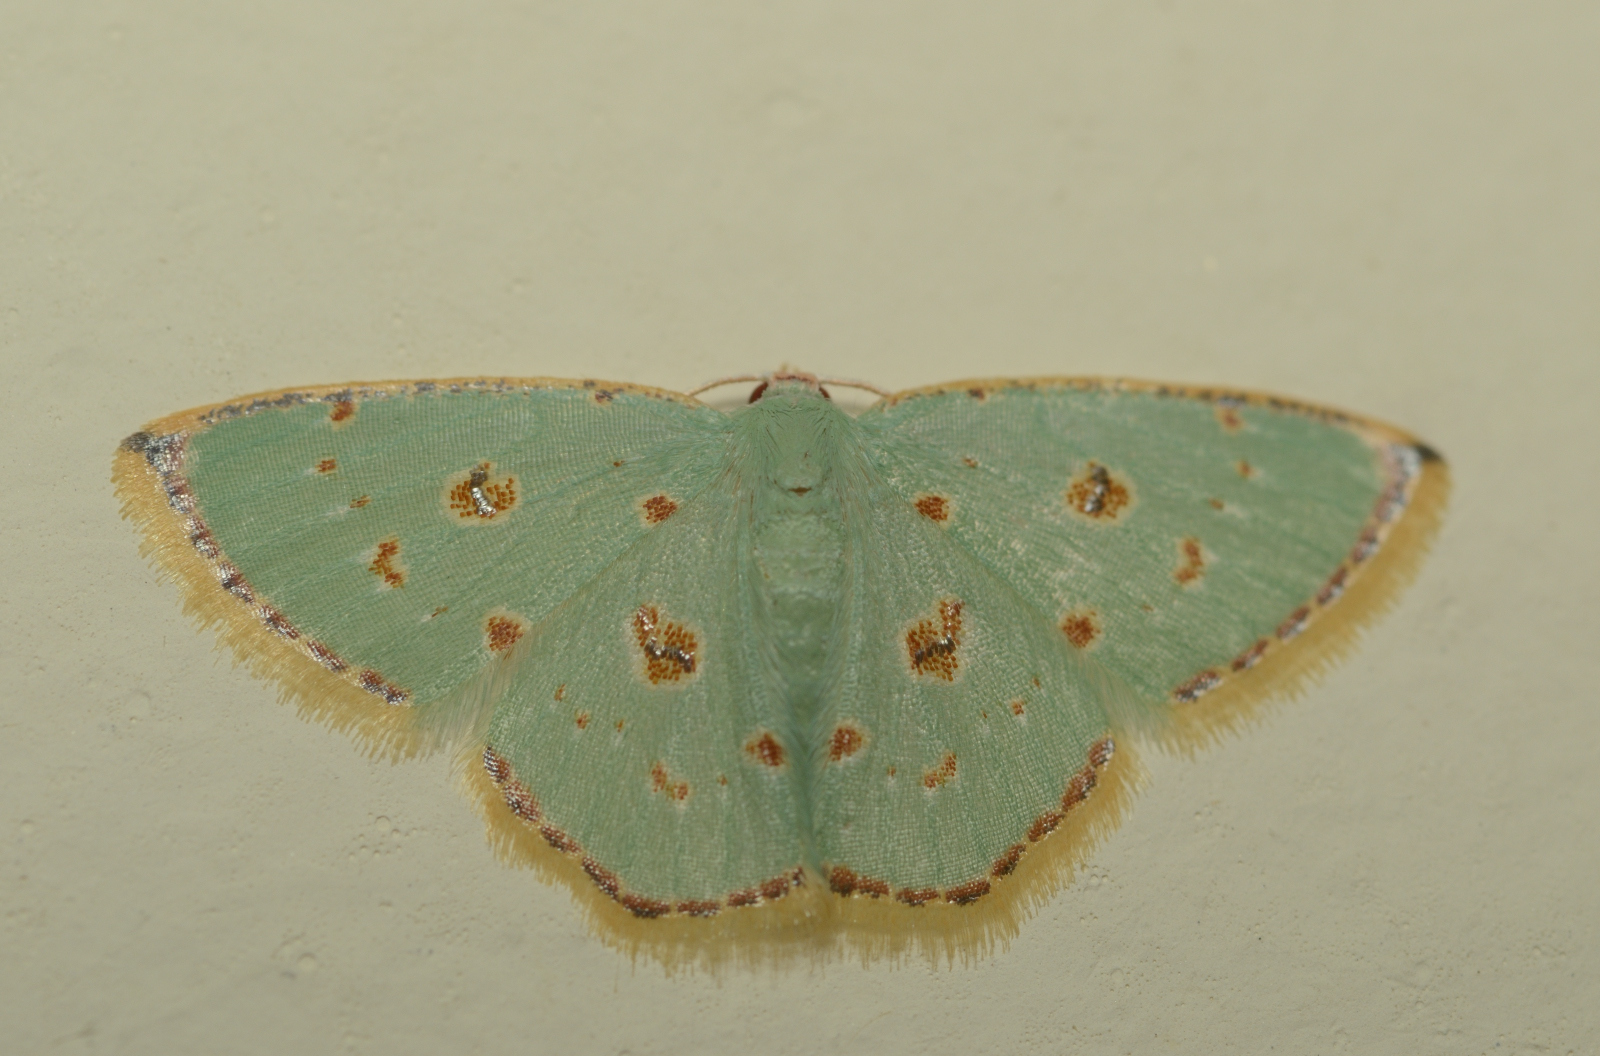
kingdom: Animalia
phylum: Arthropoda
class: Insecta
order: Lepidoptera
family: Geometridae
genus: Comostola
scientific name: Comostola laesaria
